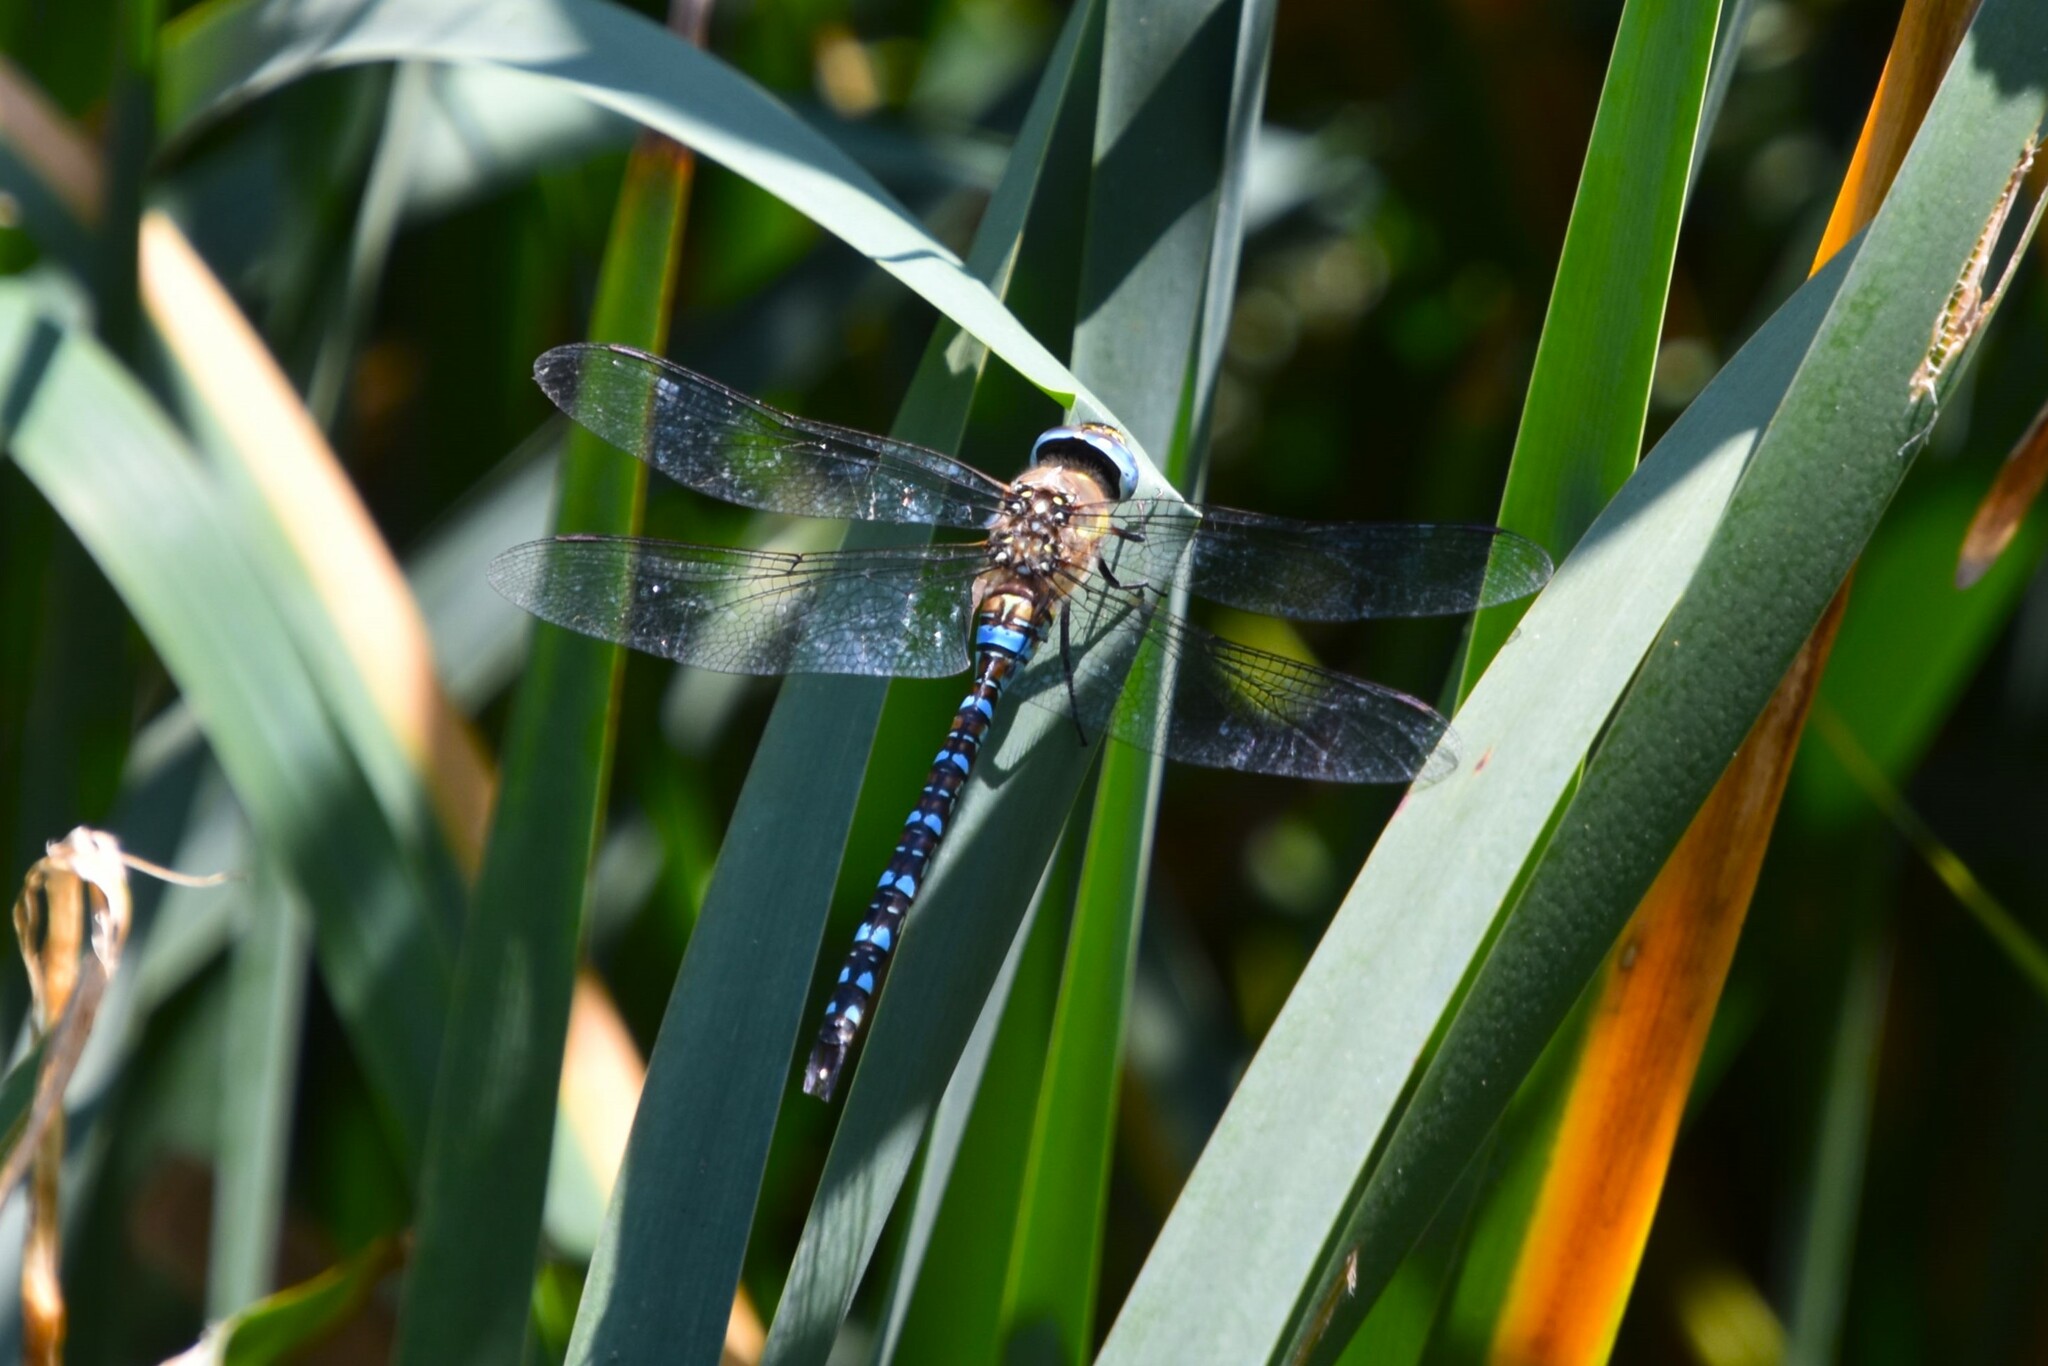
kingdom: Animalia
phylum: Arthropoda
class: Insecta
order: Odonata
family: Aeshnidae
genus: Aeshna
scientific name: Aeshna mixta
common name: Migrant hawker
